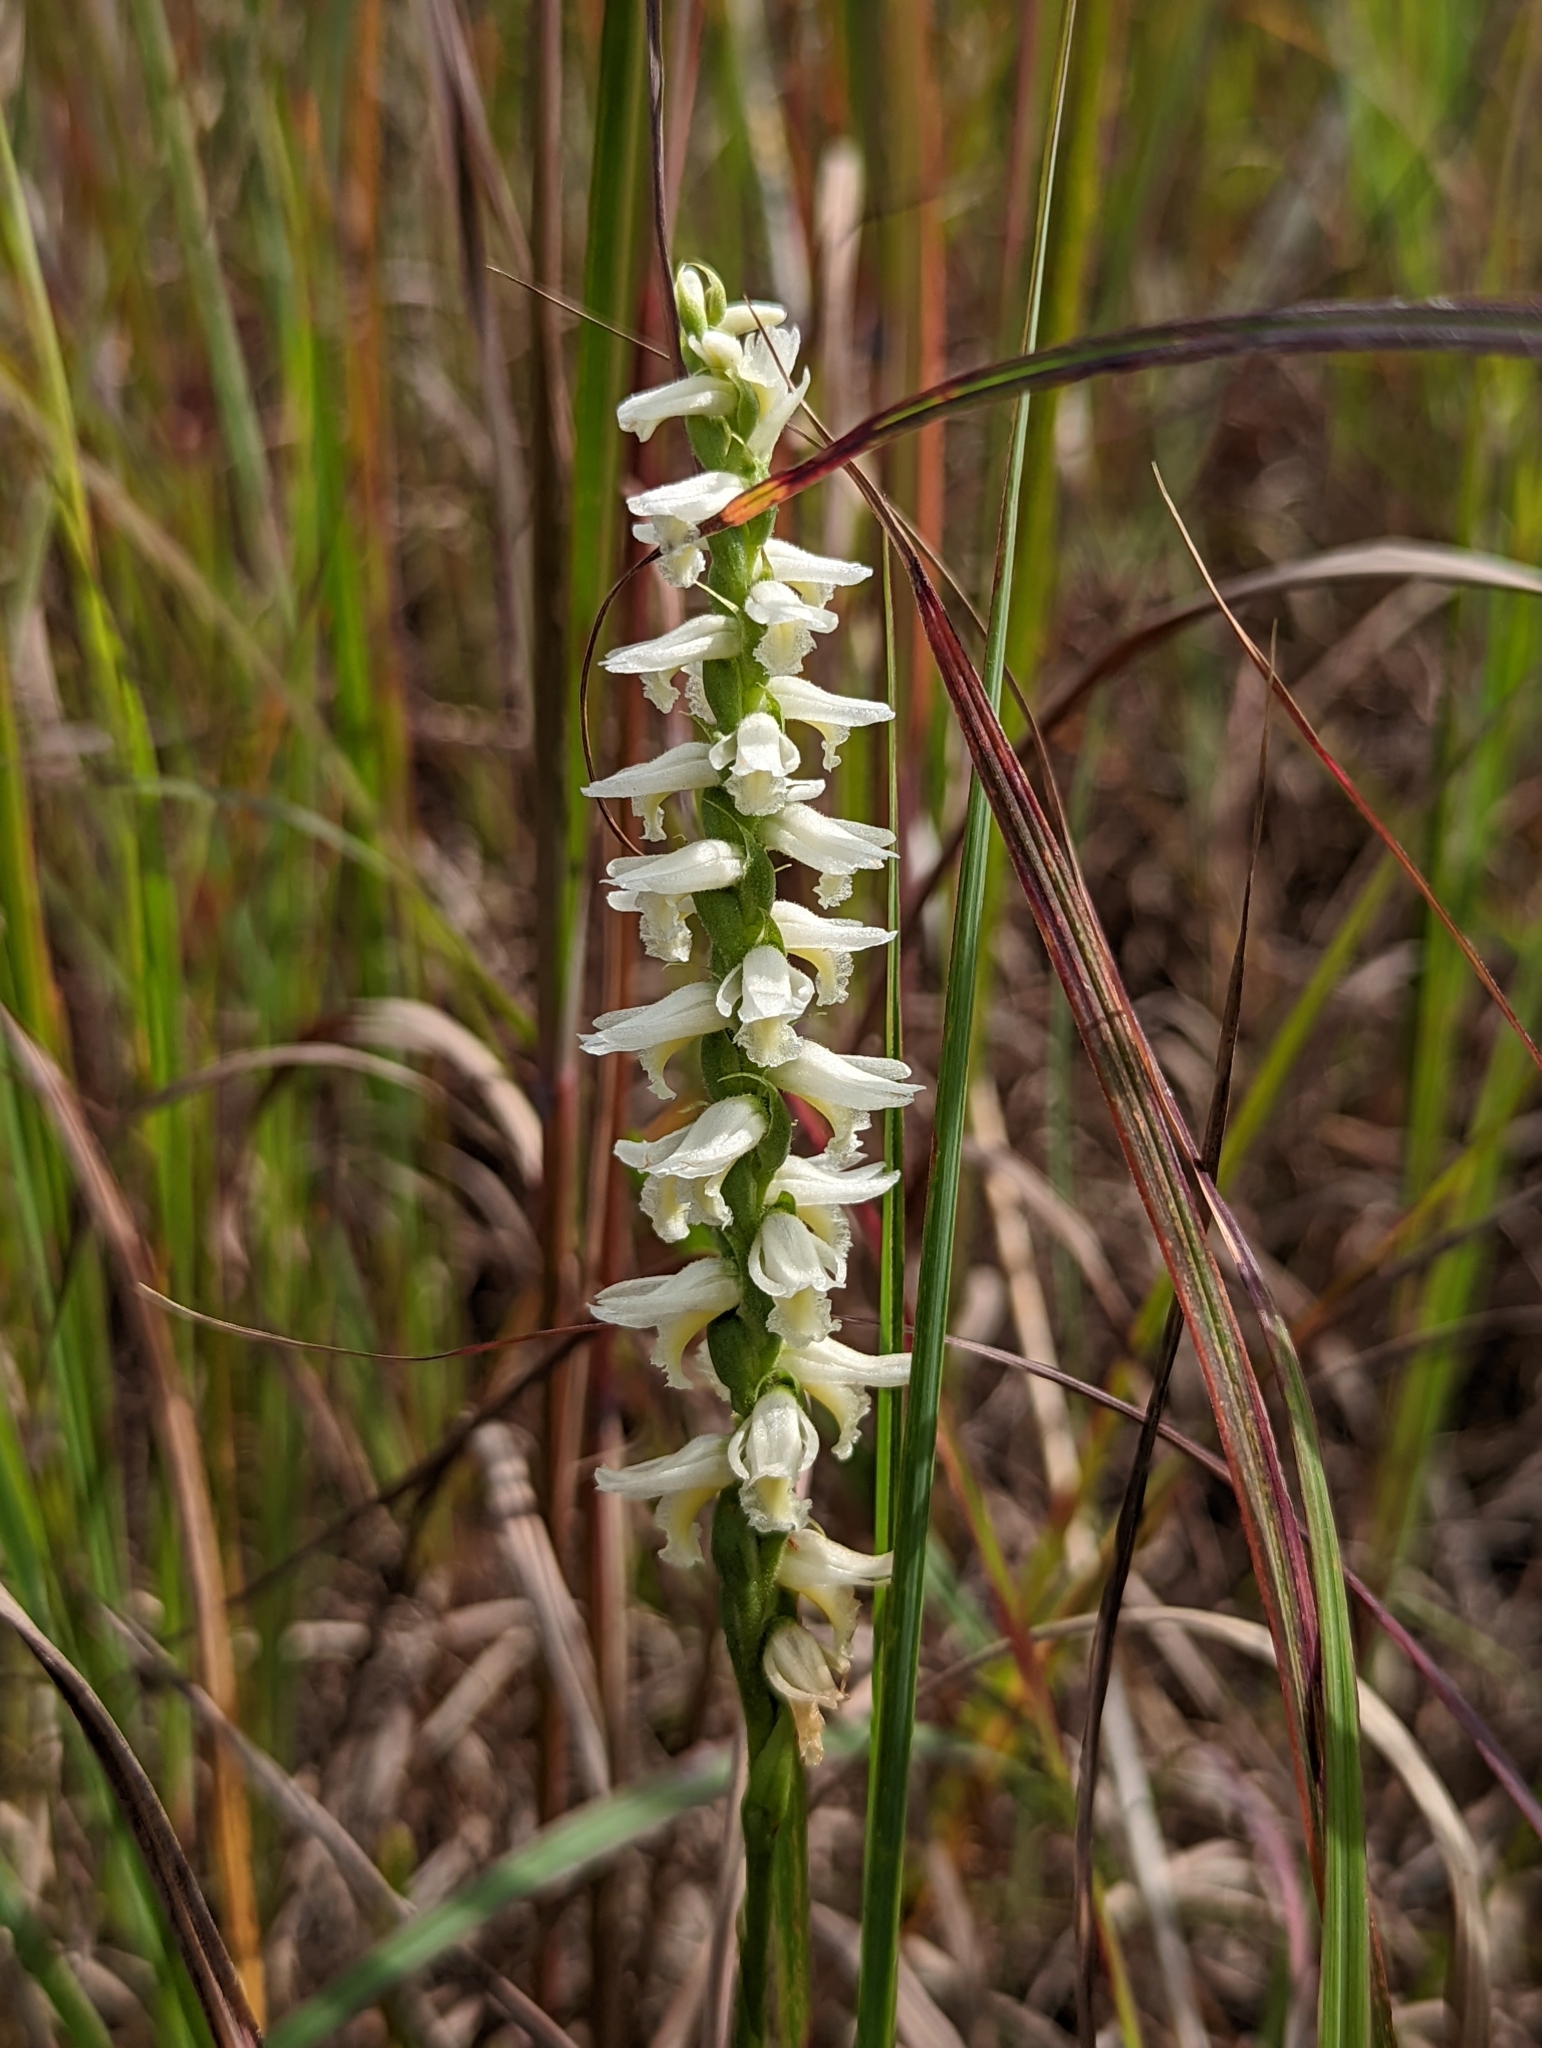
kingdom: Plantae
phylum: Tracheophyta
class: Liliopsida
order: Asparagales
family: Orchidaceae
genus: Spiranthes
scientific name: Spiranthes magnicamporum
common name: Great plains ladies'-tresses
